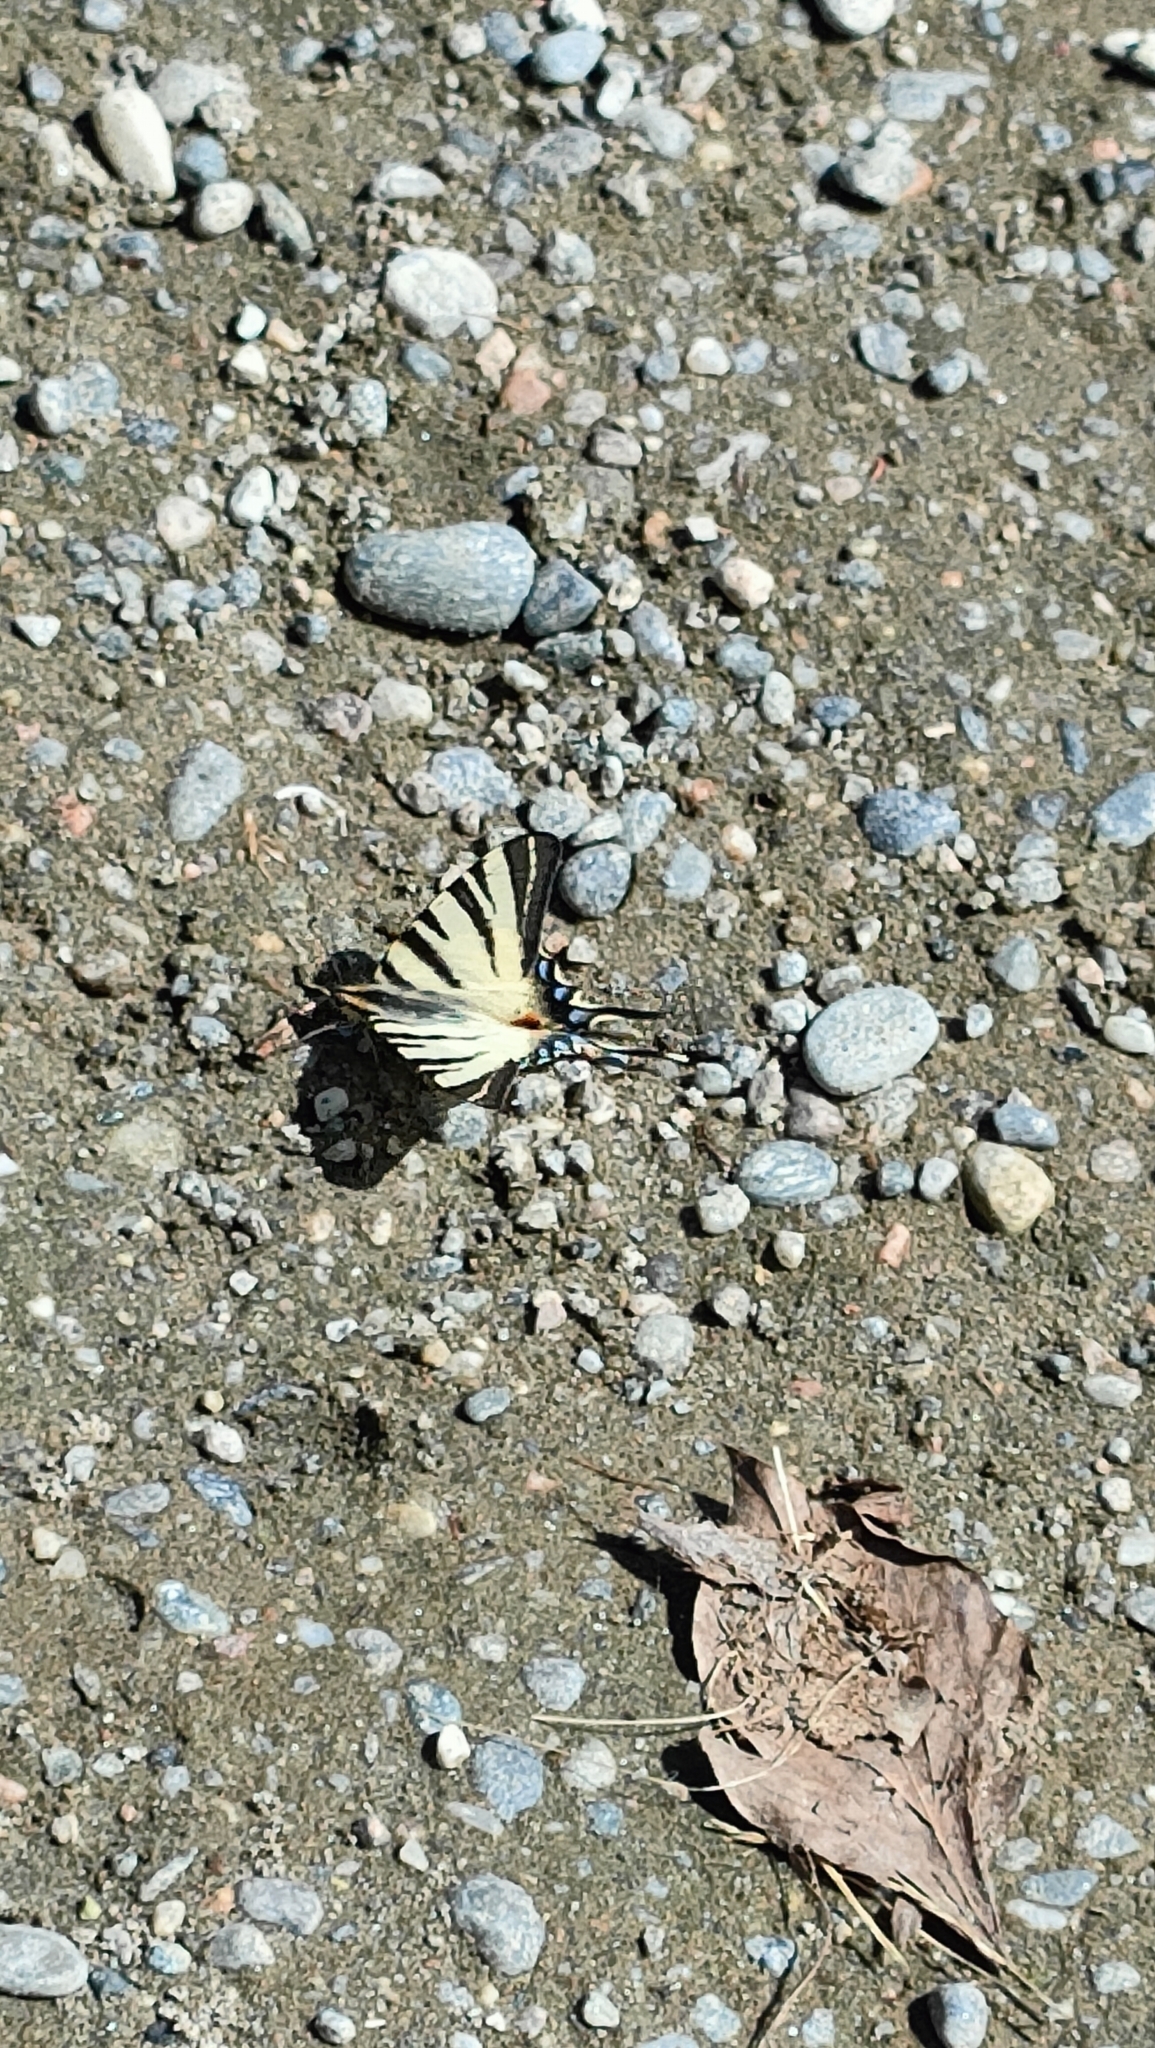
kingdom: Animalia
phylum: Arthropoda
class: Insecta
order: Lepidoptera
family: Papilionidae
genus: Iphiclides
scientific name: Iphiclides podalirius
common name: Scarce swallowtail
